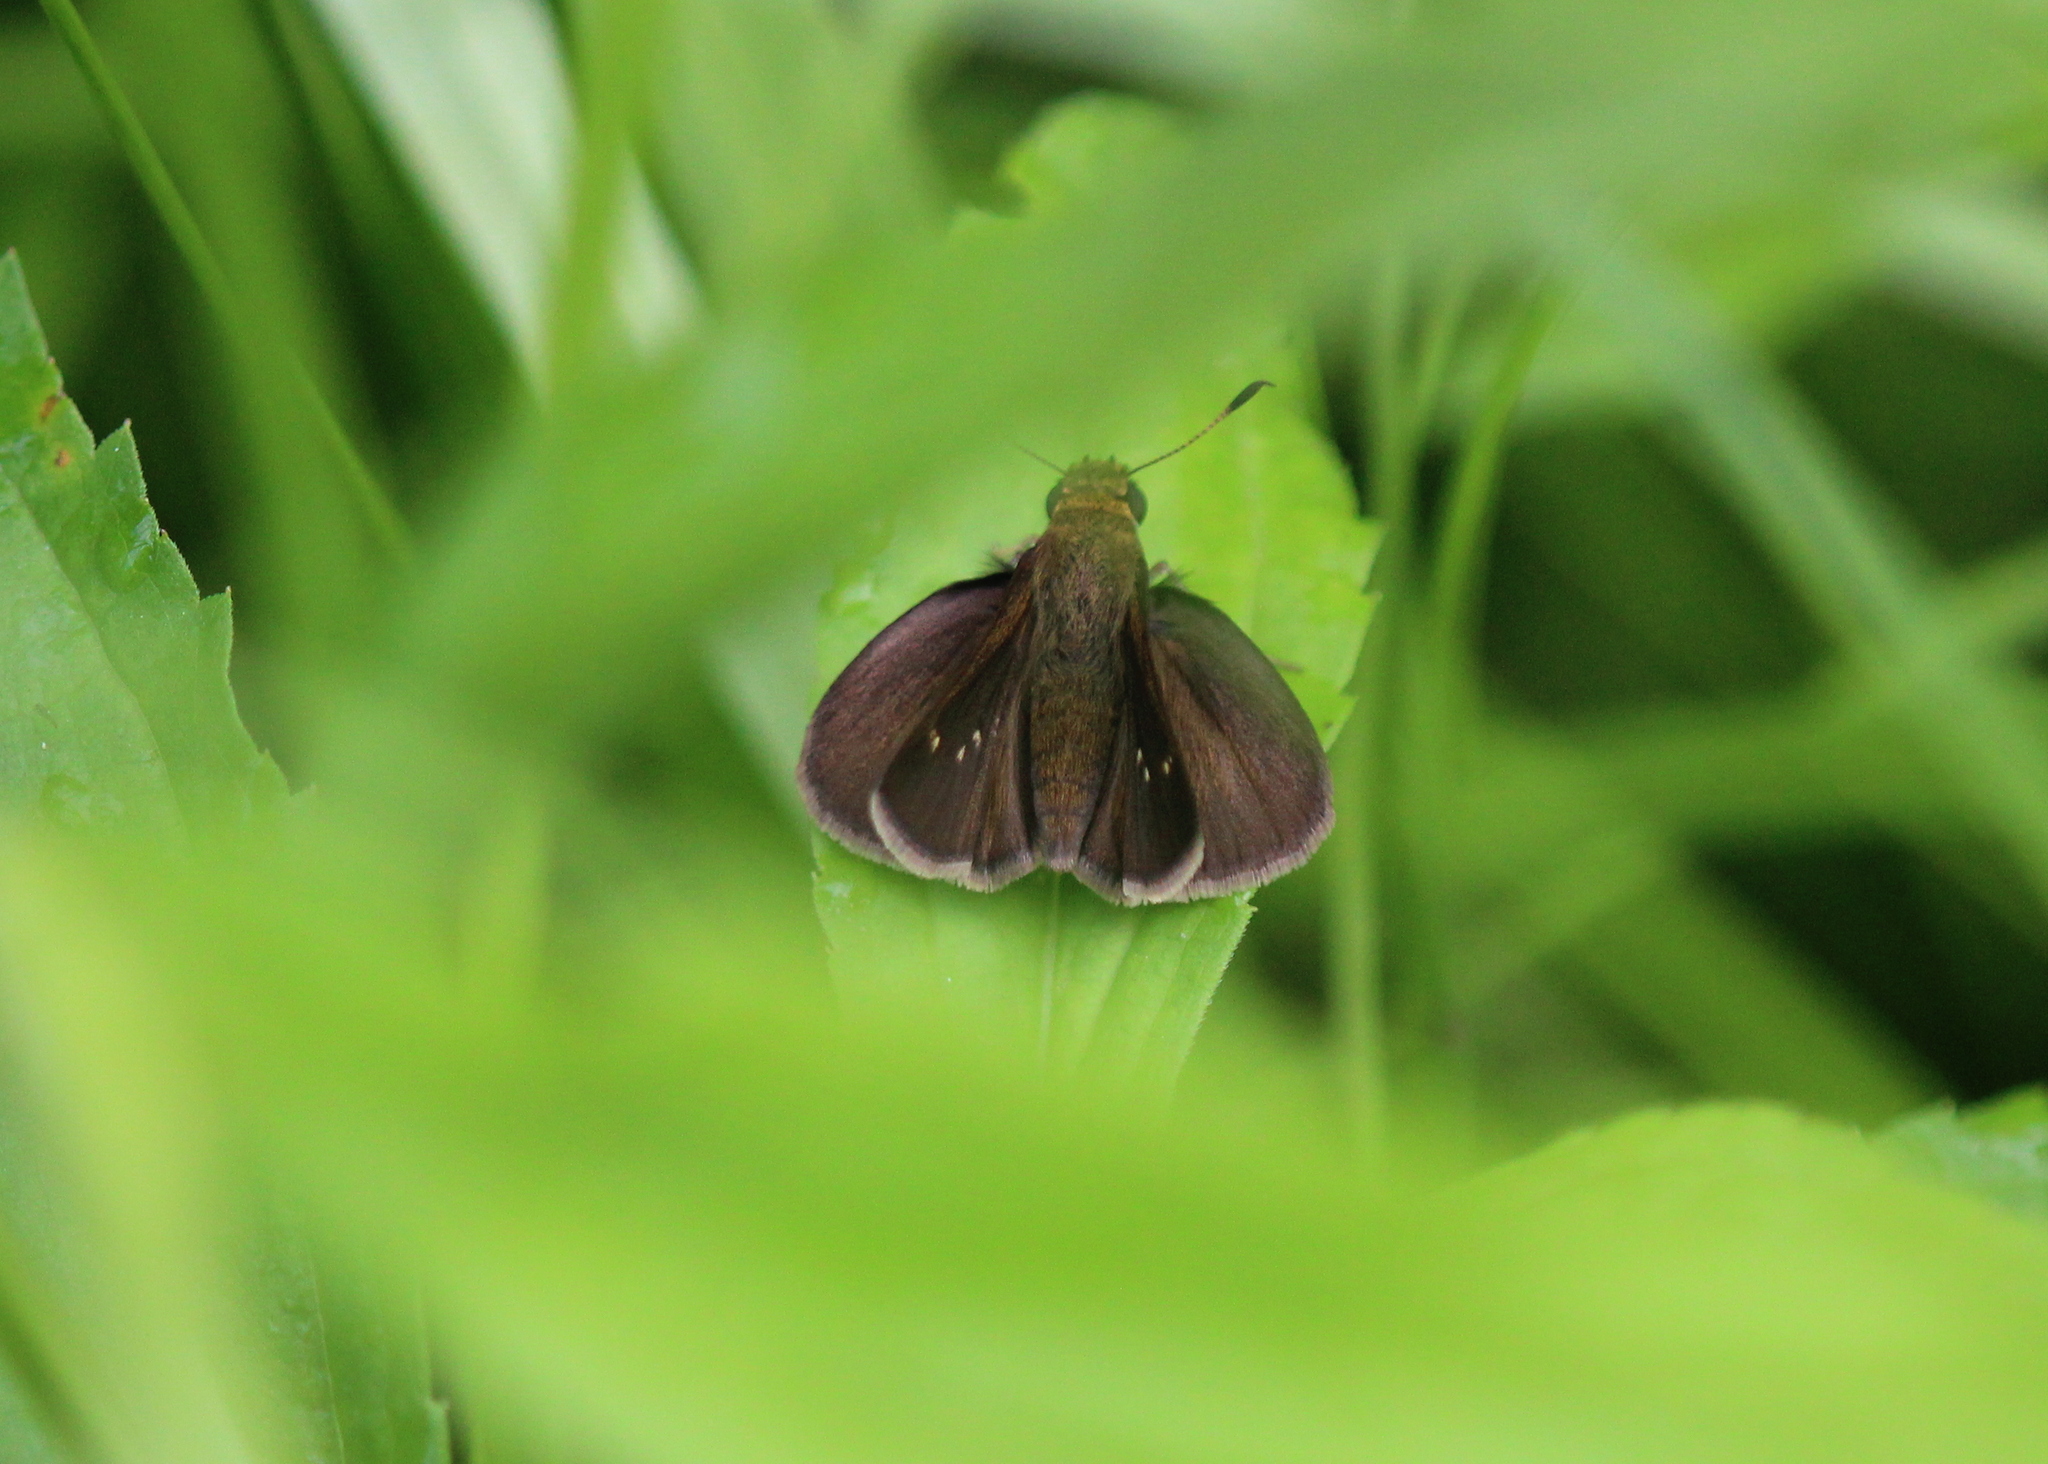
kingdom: Animalia
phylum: Arthropoda
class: Insecta
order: Lepidoptera
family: Hesperiidae
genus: Euphyes
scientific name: Euphyes vestris
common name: Dun skipper
